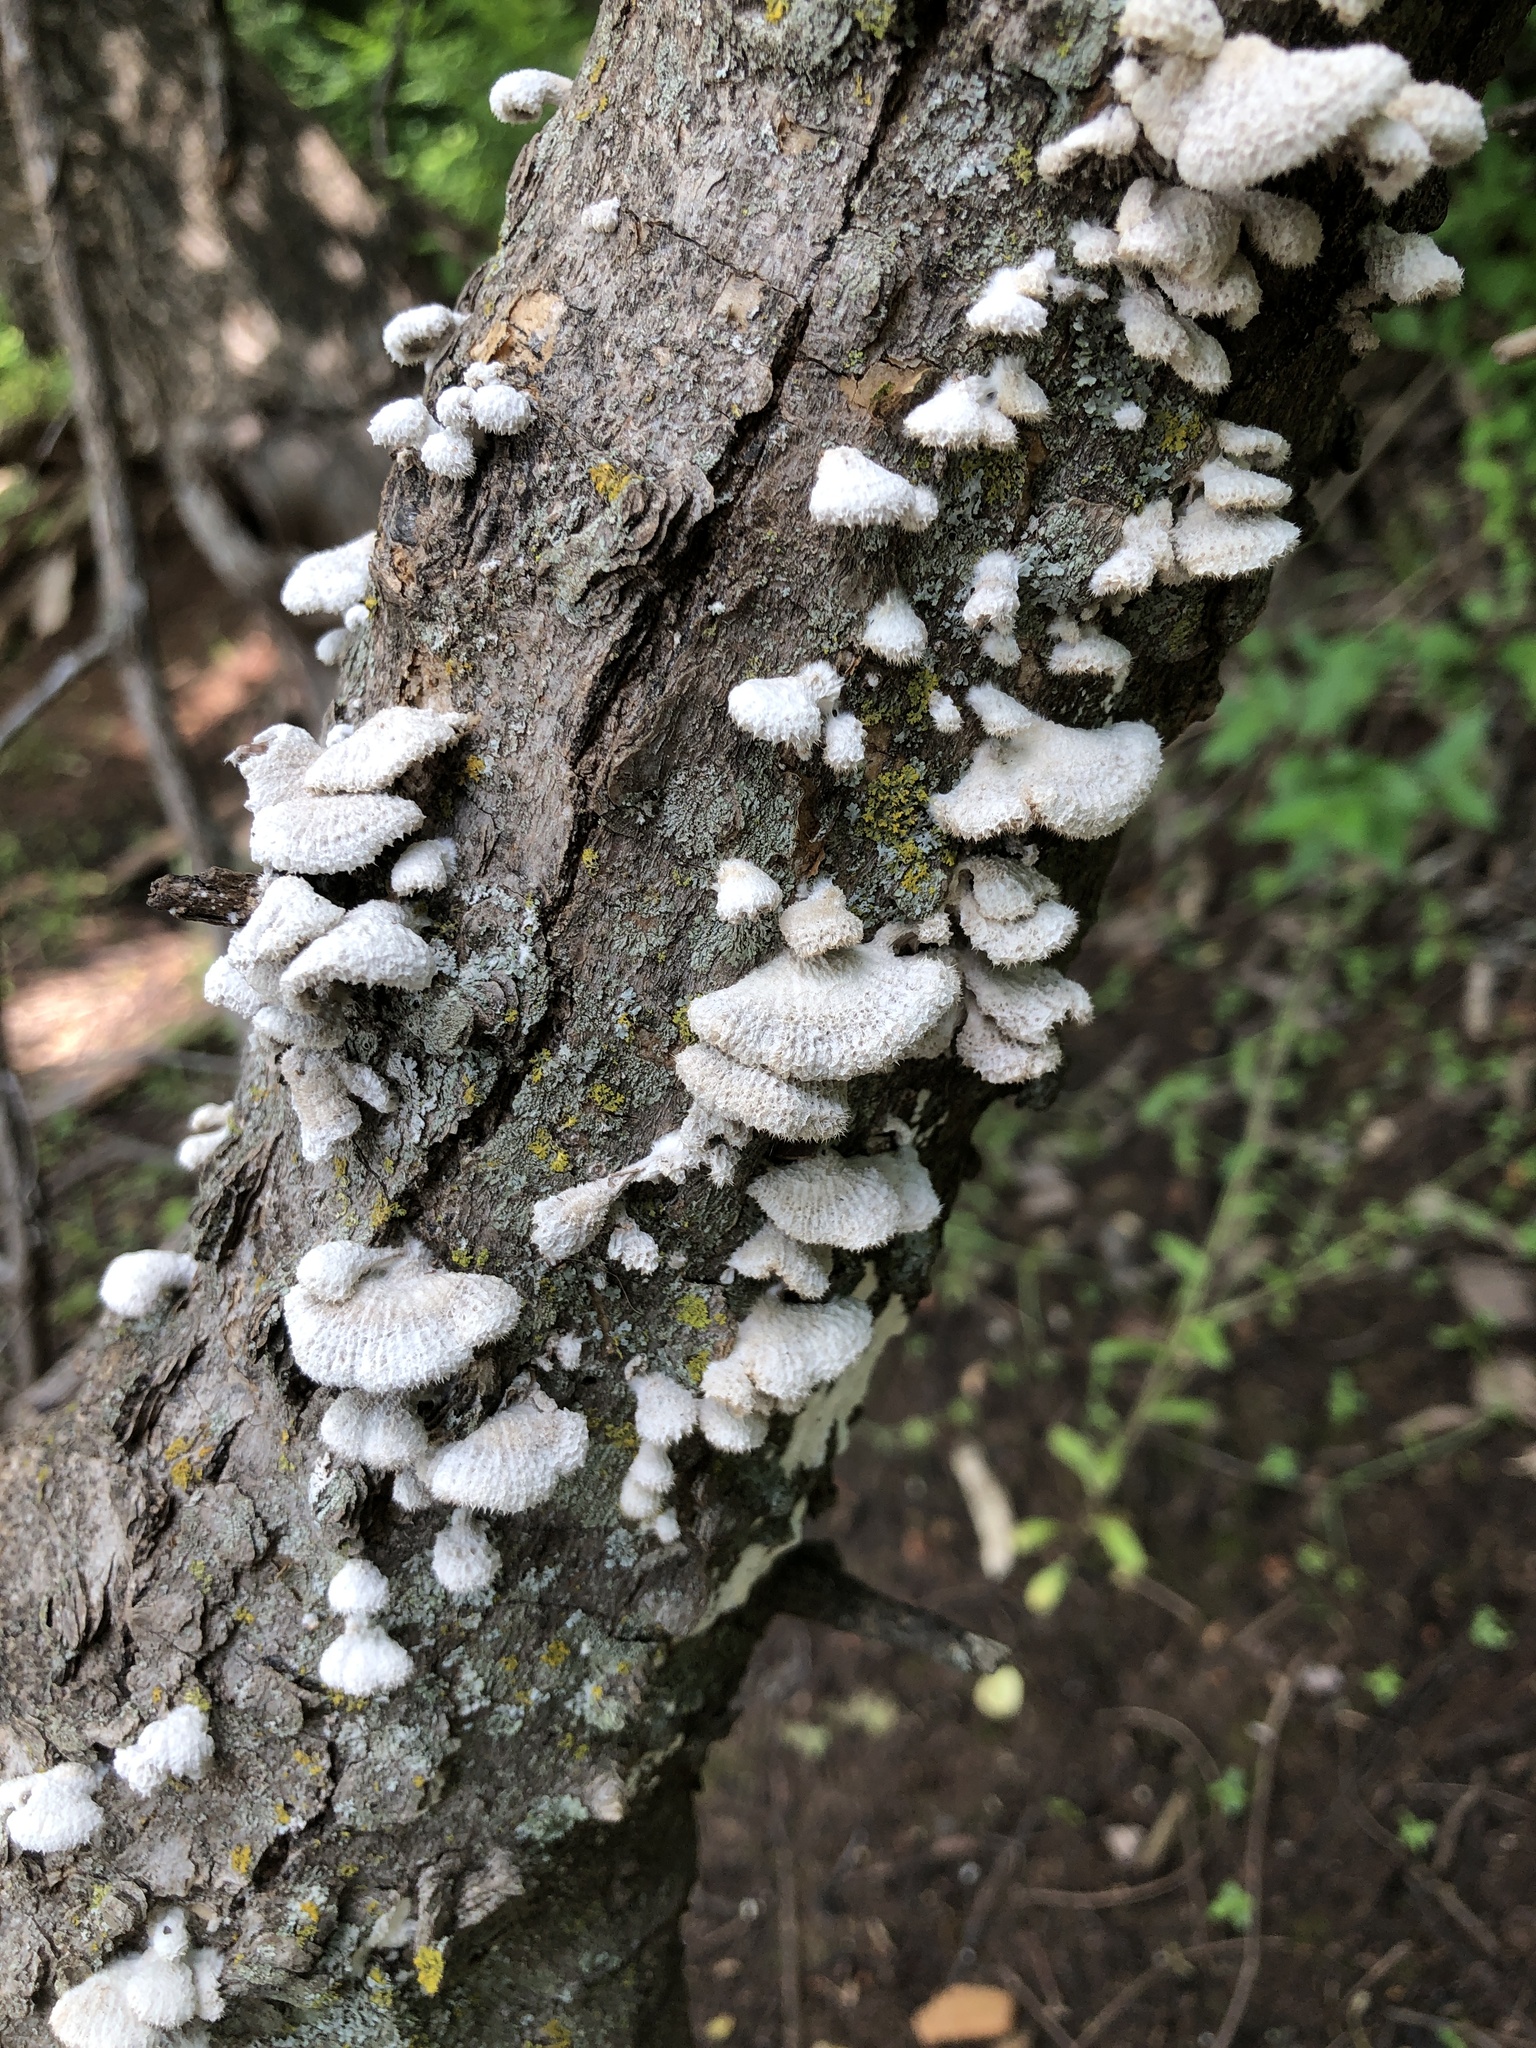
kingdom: Fungi
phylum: Basidiomycota
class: Agaricomycetes
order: Agaricales
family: Schizophyllaceae
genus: Schizophyllum
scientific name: Schizophyllum commune
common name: Common porecrust
